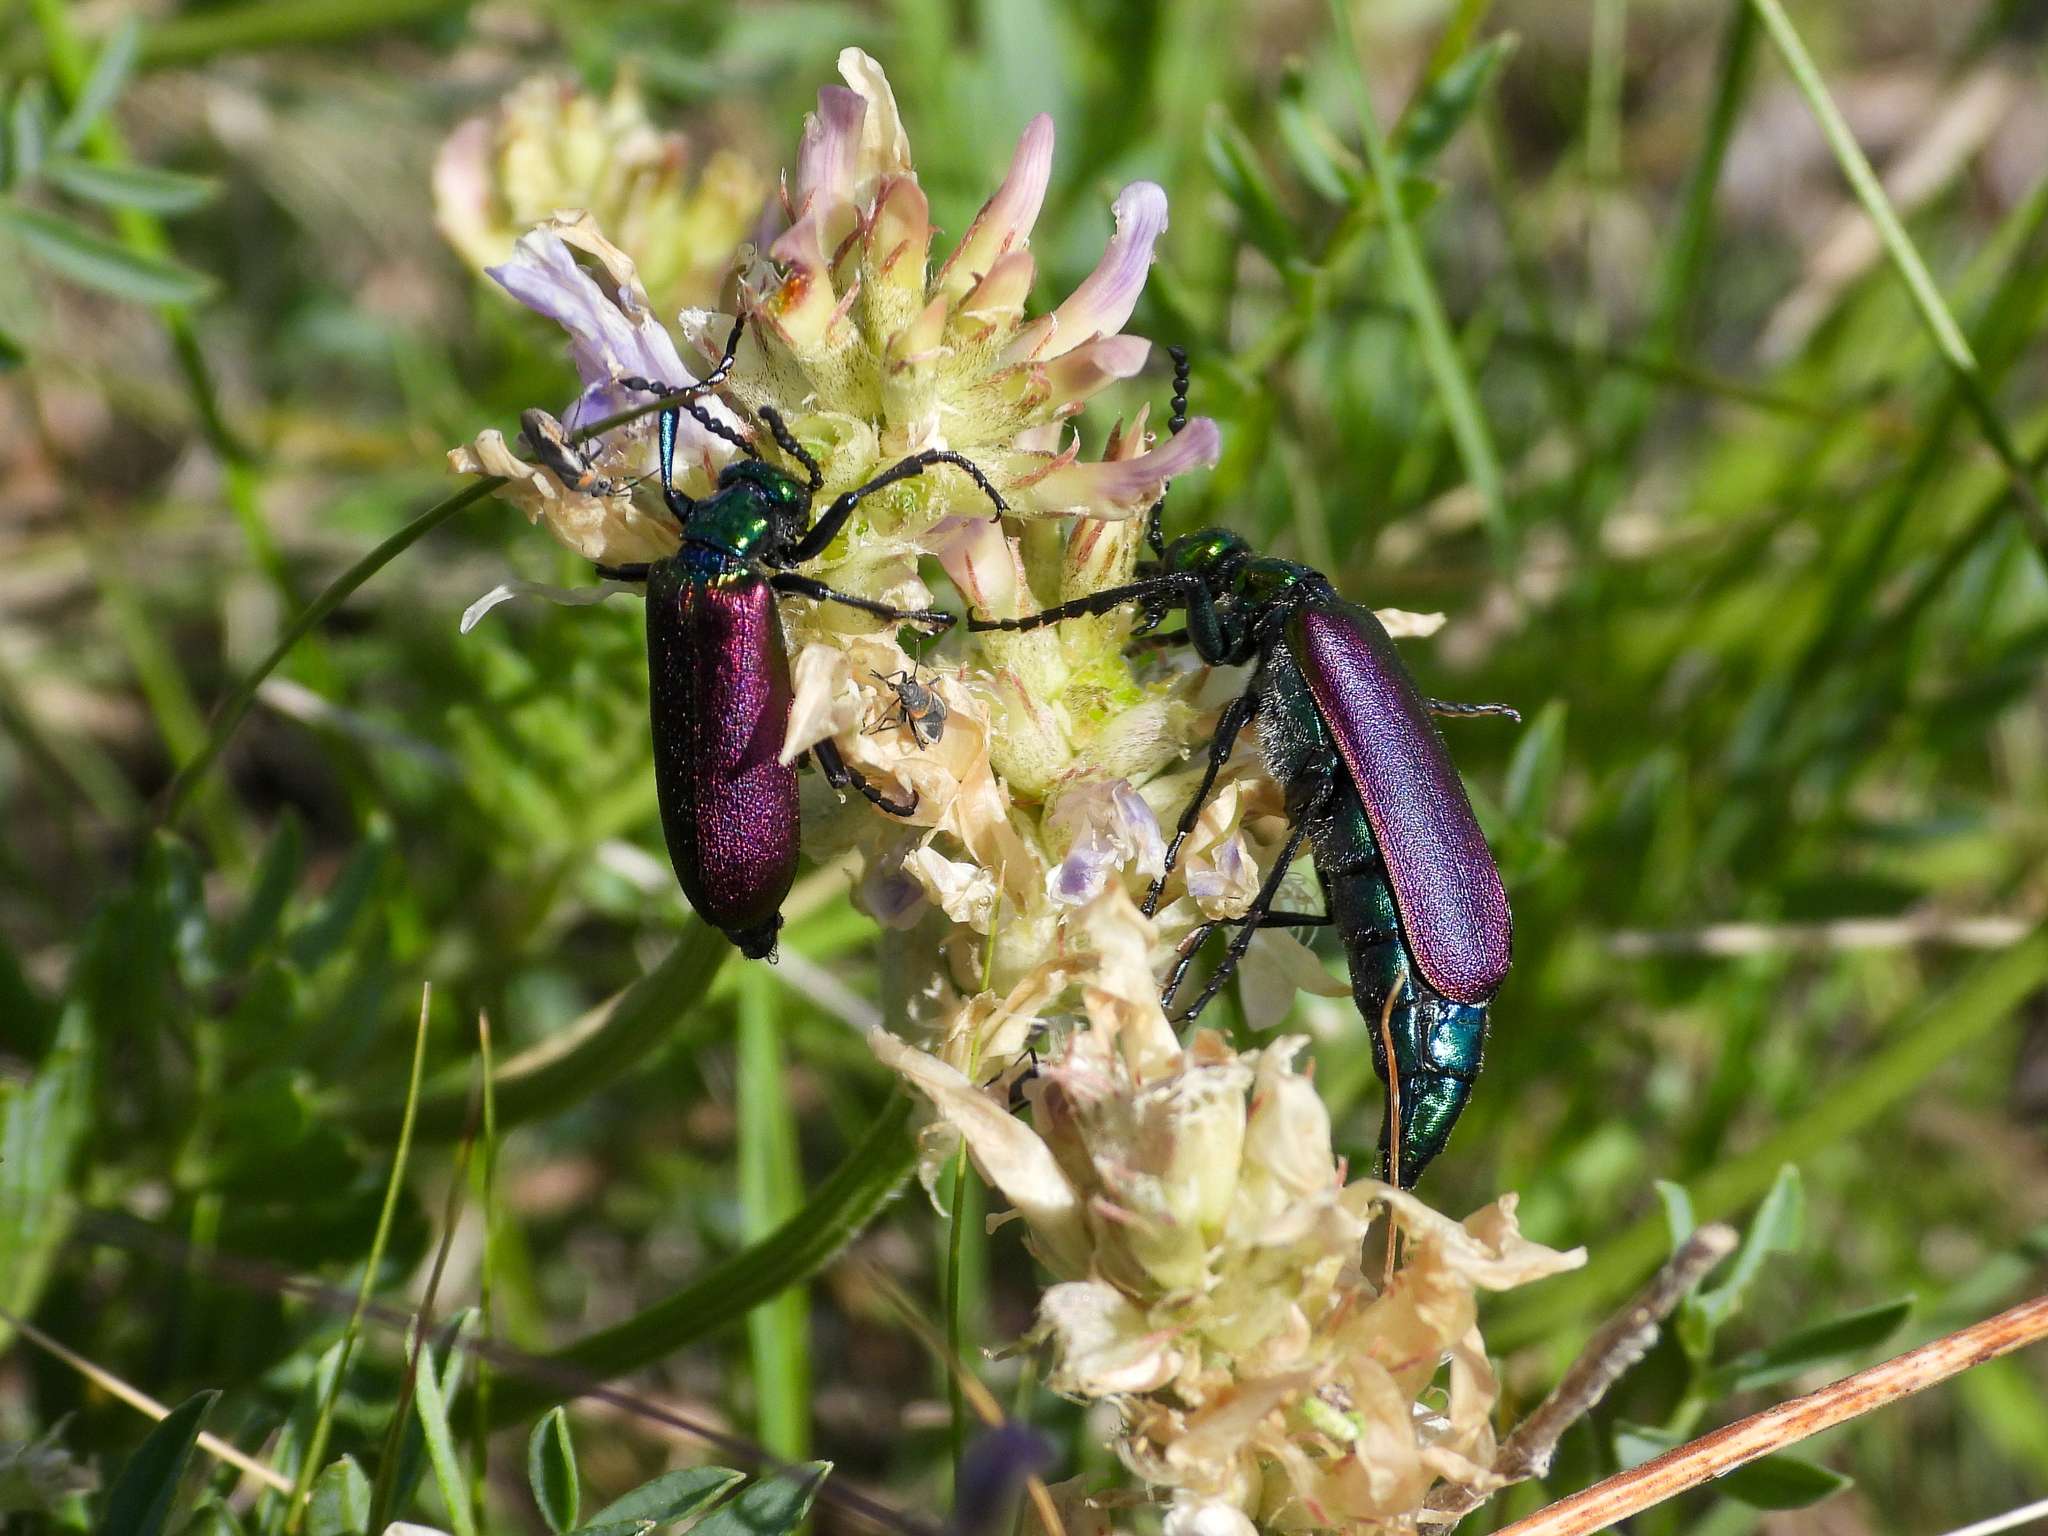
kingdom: Animalia
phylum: Arthropoda
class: Insecta
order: Coleoptera
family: Meloidae
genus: Lytta
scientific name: Lytta nuttallii
